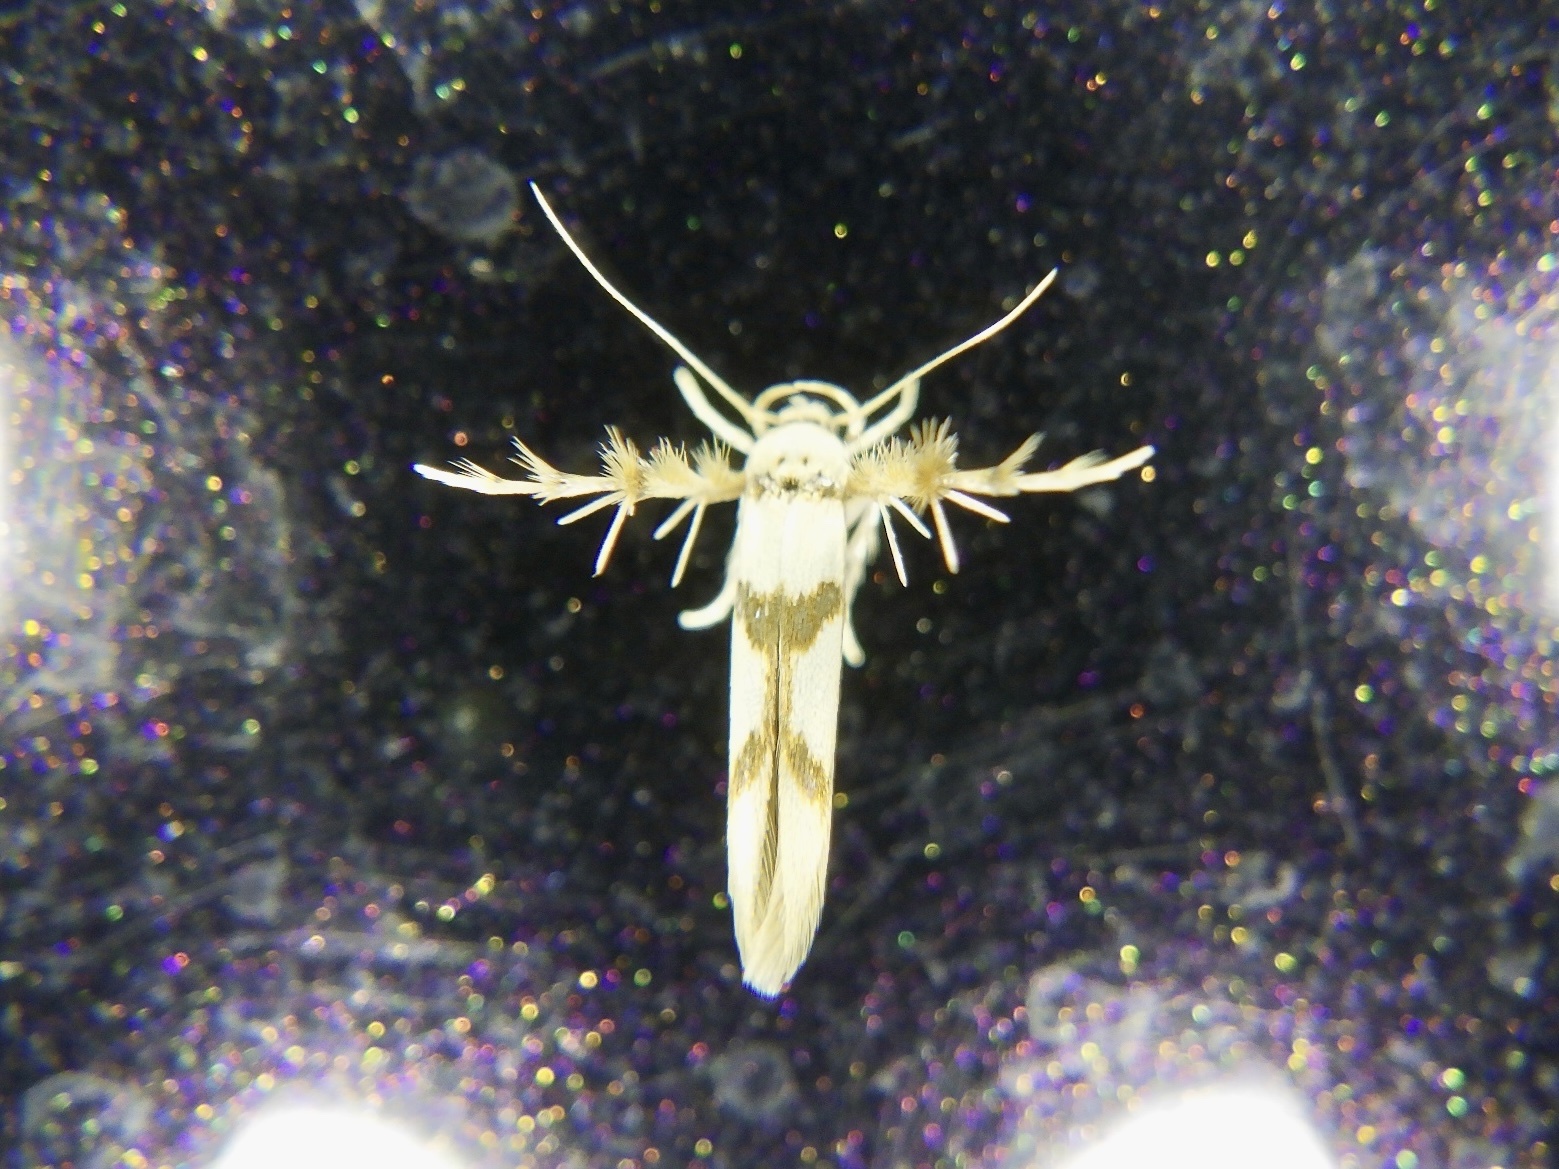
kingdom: Animalia
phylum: Arthropoda
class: Insecta
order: Lepidoptera
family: Stathmopodidae
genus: Stathmopoda
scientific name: Stathmopoda flavescens
